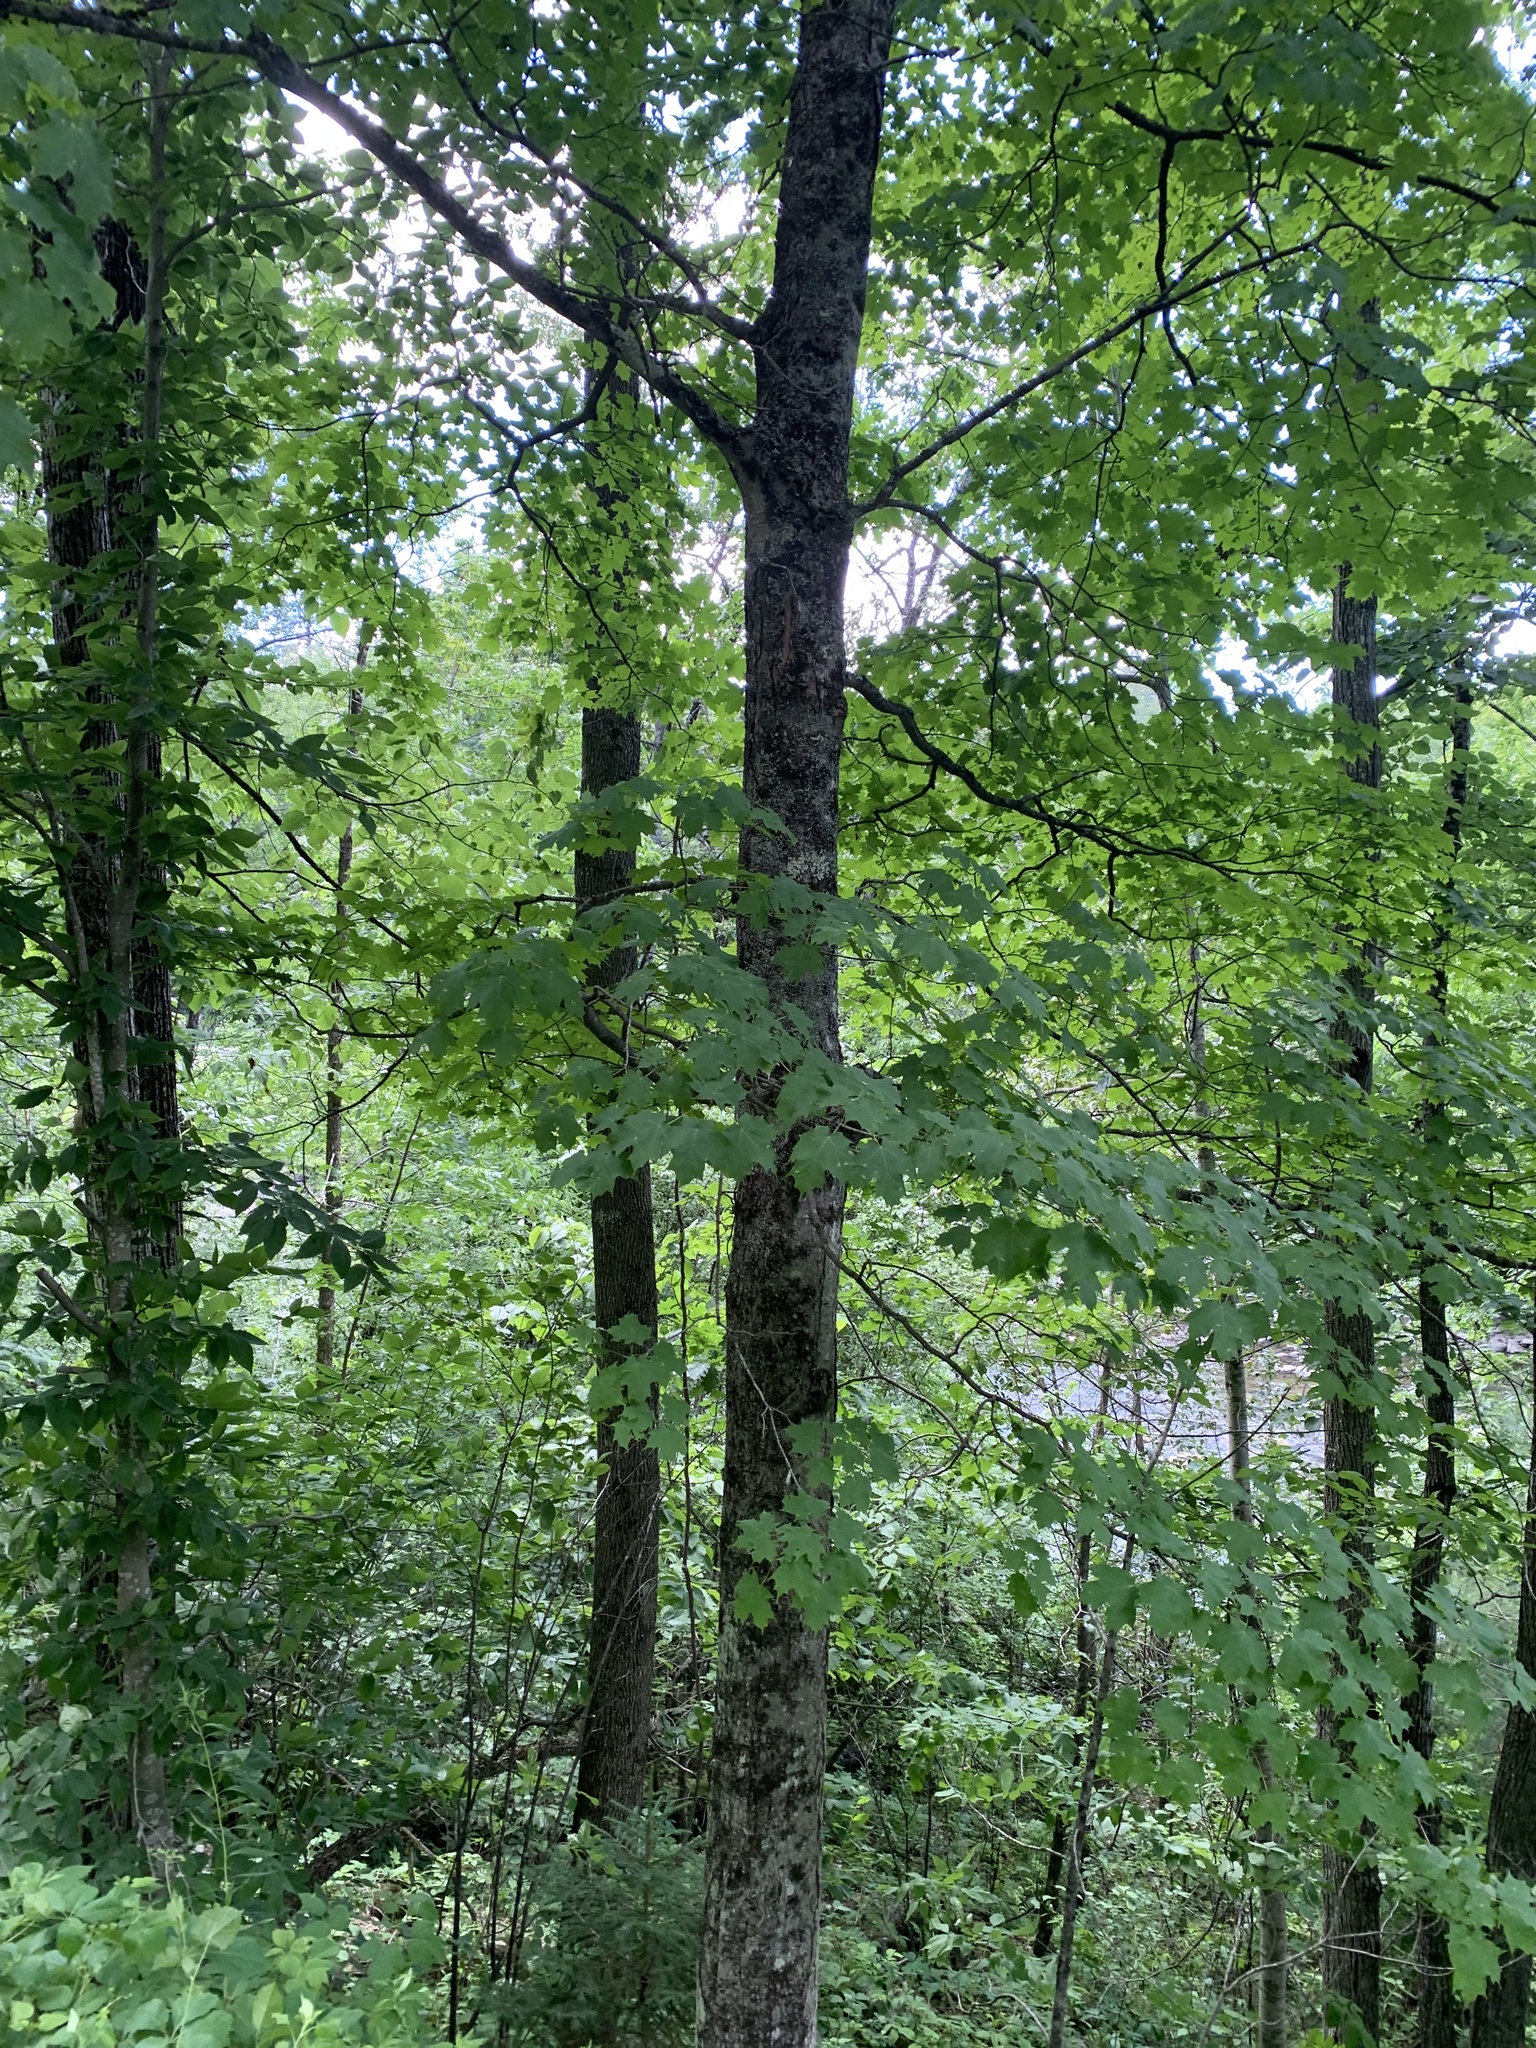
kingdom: Plantae
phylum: Tracheophyta
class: Magnoliopsida
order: Sapindales
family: Sapindaceae
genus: Acer
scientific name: Acer saccharum
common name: Sugar maple
